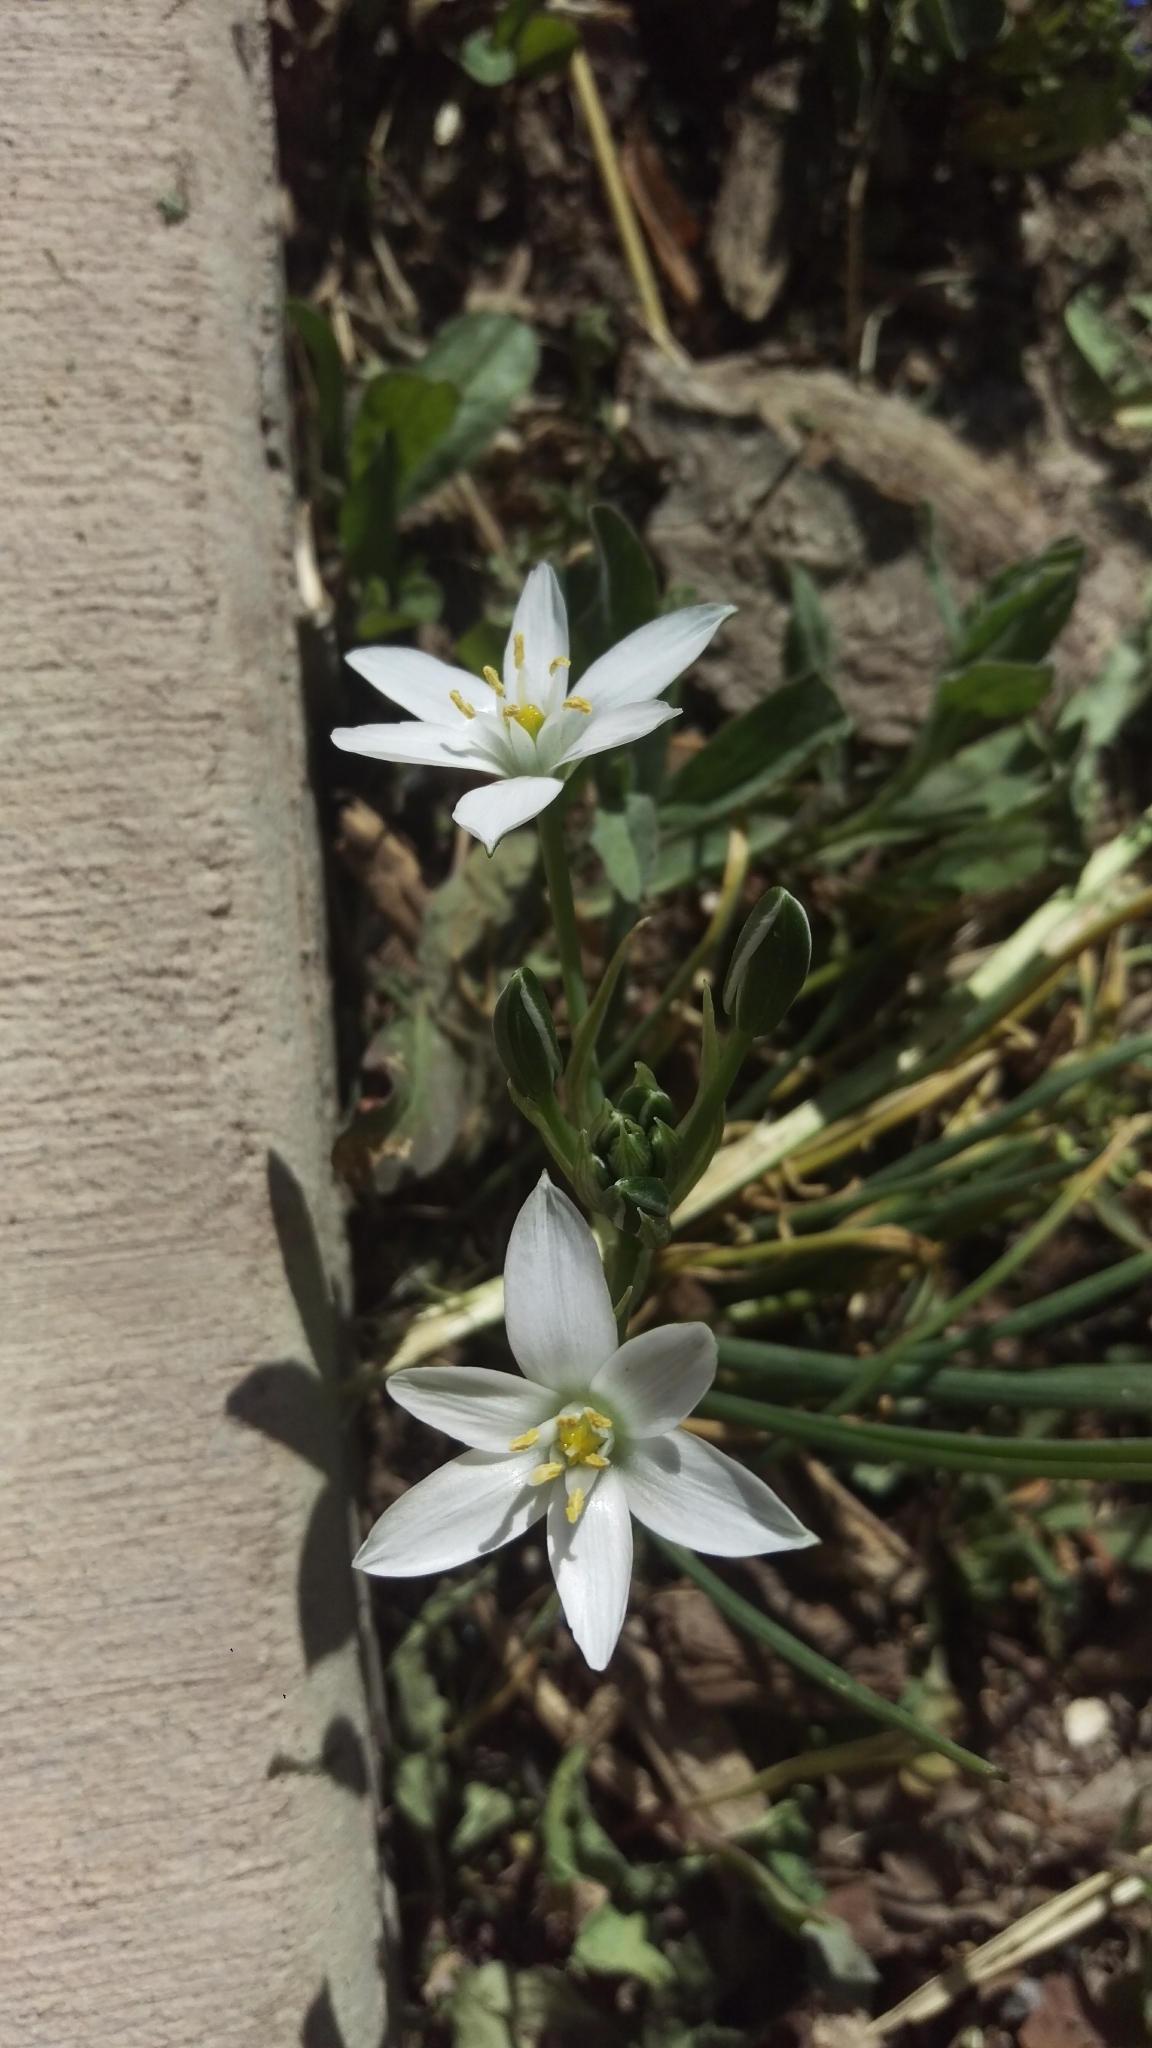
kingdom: Plantae
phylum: Tracheophyta
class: Liliopsida
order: Asparagales
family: Asparagaceae
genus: Ornithogalum
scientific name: Ornithogalum umbellatum
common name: Garden star-of-bethlehem
